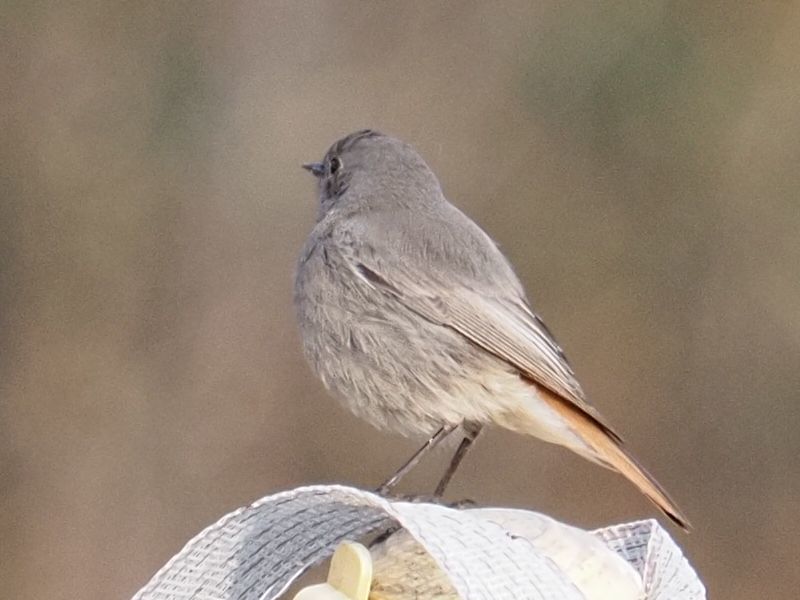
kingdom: Animalia
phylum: Chordata
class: Aves
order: Passeriformes
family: Muscicapidae
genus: Phoenicurus
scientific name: Phoenicurus ochruros
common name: Black redstart
